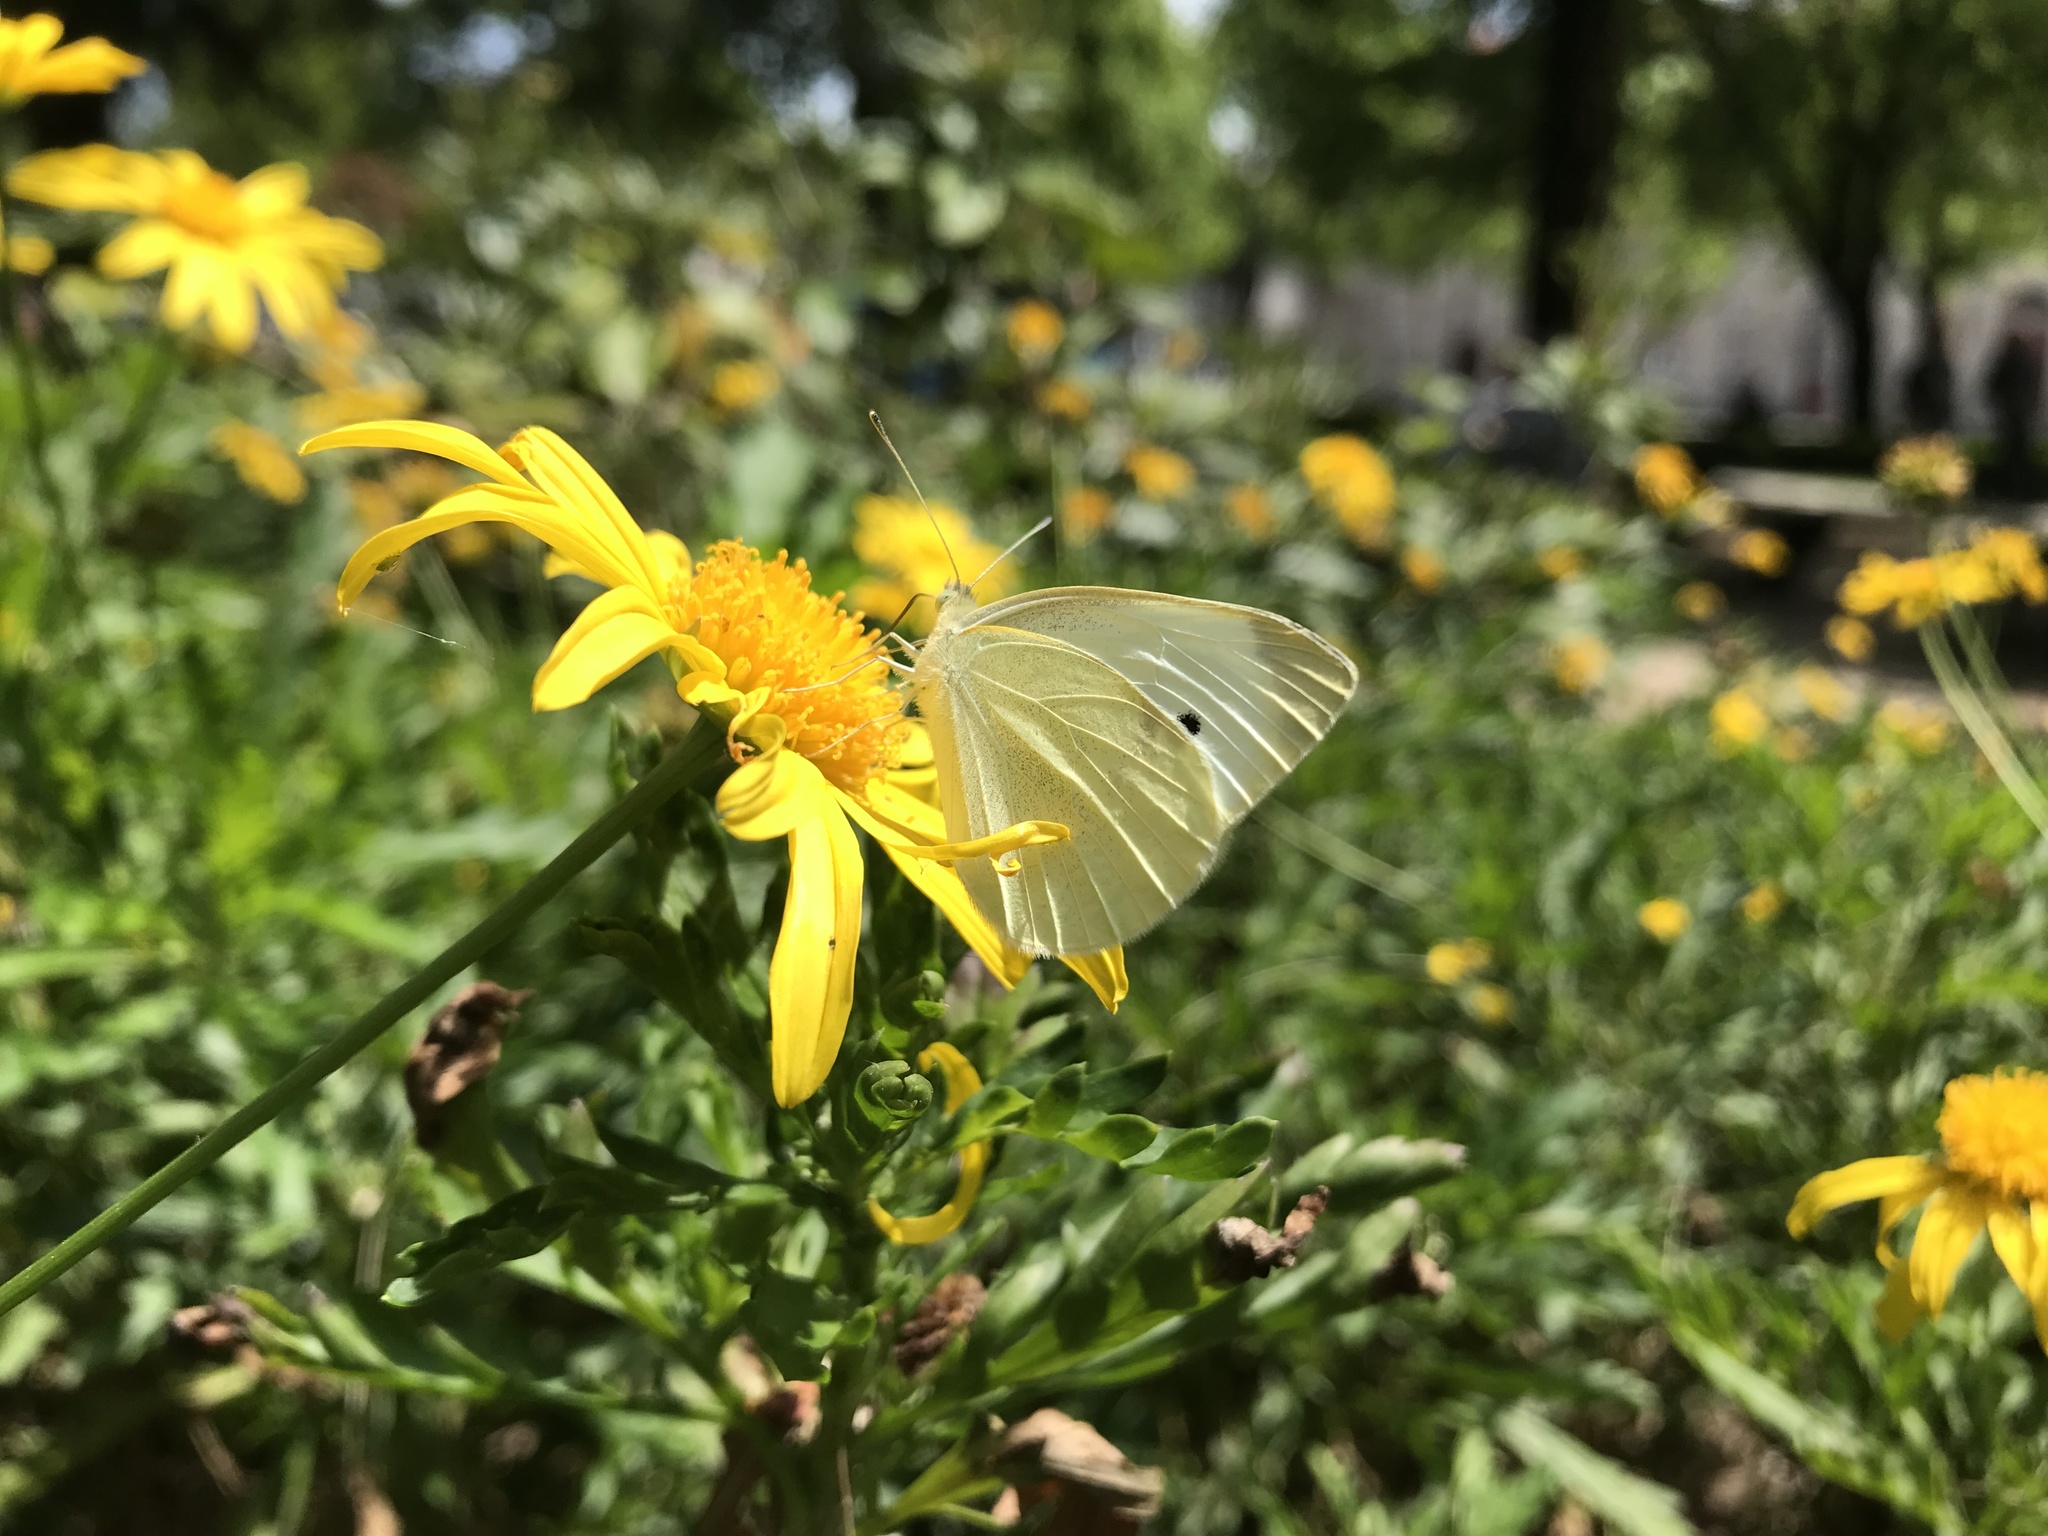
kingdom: Animalia
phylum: Arthropoda
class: Insecta
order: Lepidoptera
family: Pieridae
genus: Pieris
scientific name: Pieris brassicae
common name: Large white
